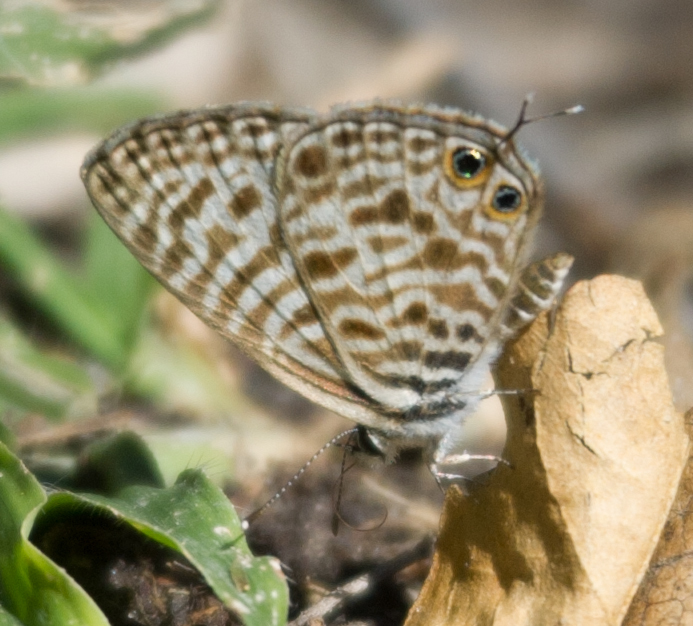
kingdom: Animalia
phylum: Arthropoda
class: Insecta
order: Lepidoptera
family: Lycaenidae
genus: Leptotes
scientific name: Leptotes
